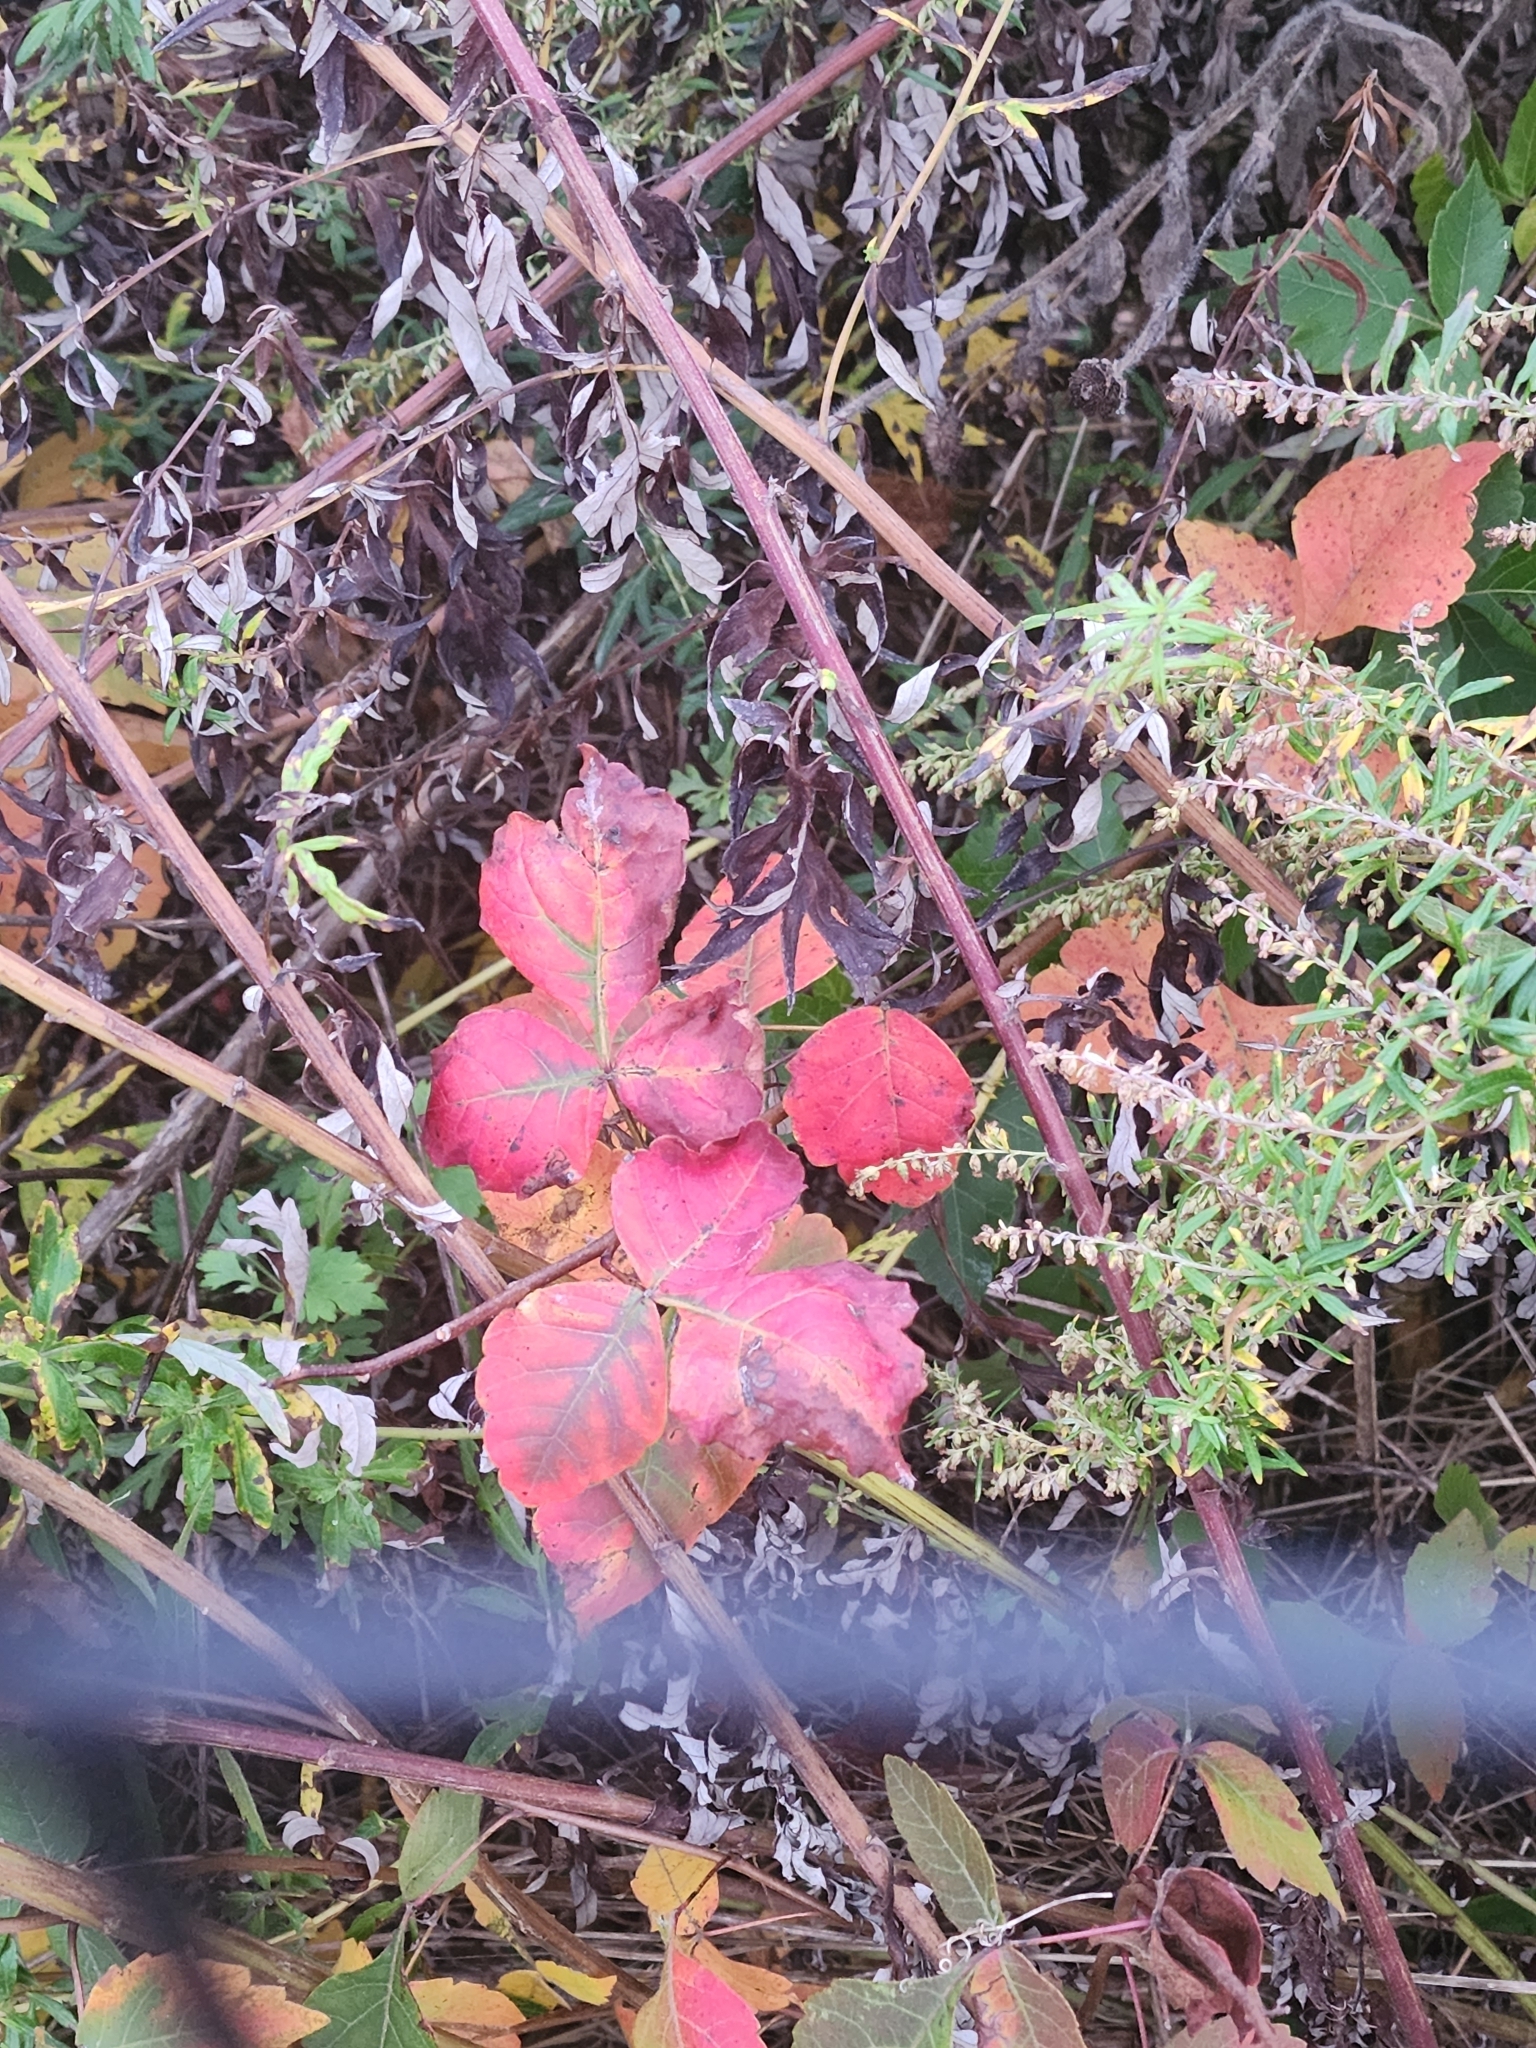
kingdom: Plantae
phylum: Tracheophyta
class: Magnoliopsida
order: Sapindales
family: Anacardiaceae
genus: Rhus
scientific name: Rhus aromatica
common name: Aromatic sumac
